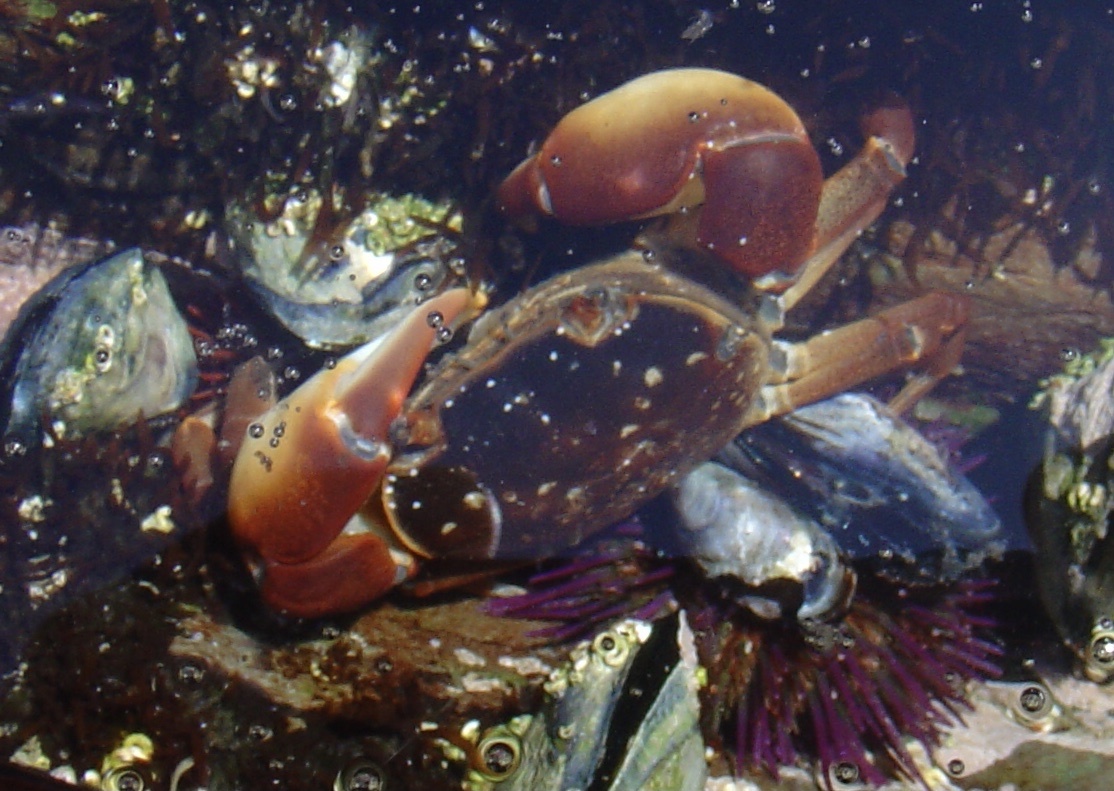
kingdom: Animalia
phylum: Arthropoda
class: Malacostraca
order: Decapoda
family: Varunidae
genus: Cyclograpsus
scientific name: Cyclograpsus punctatus
